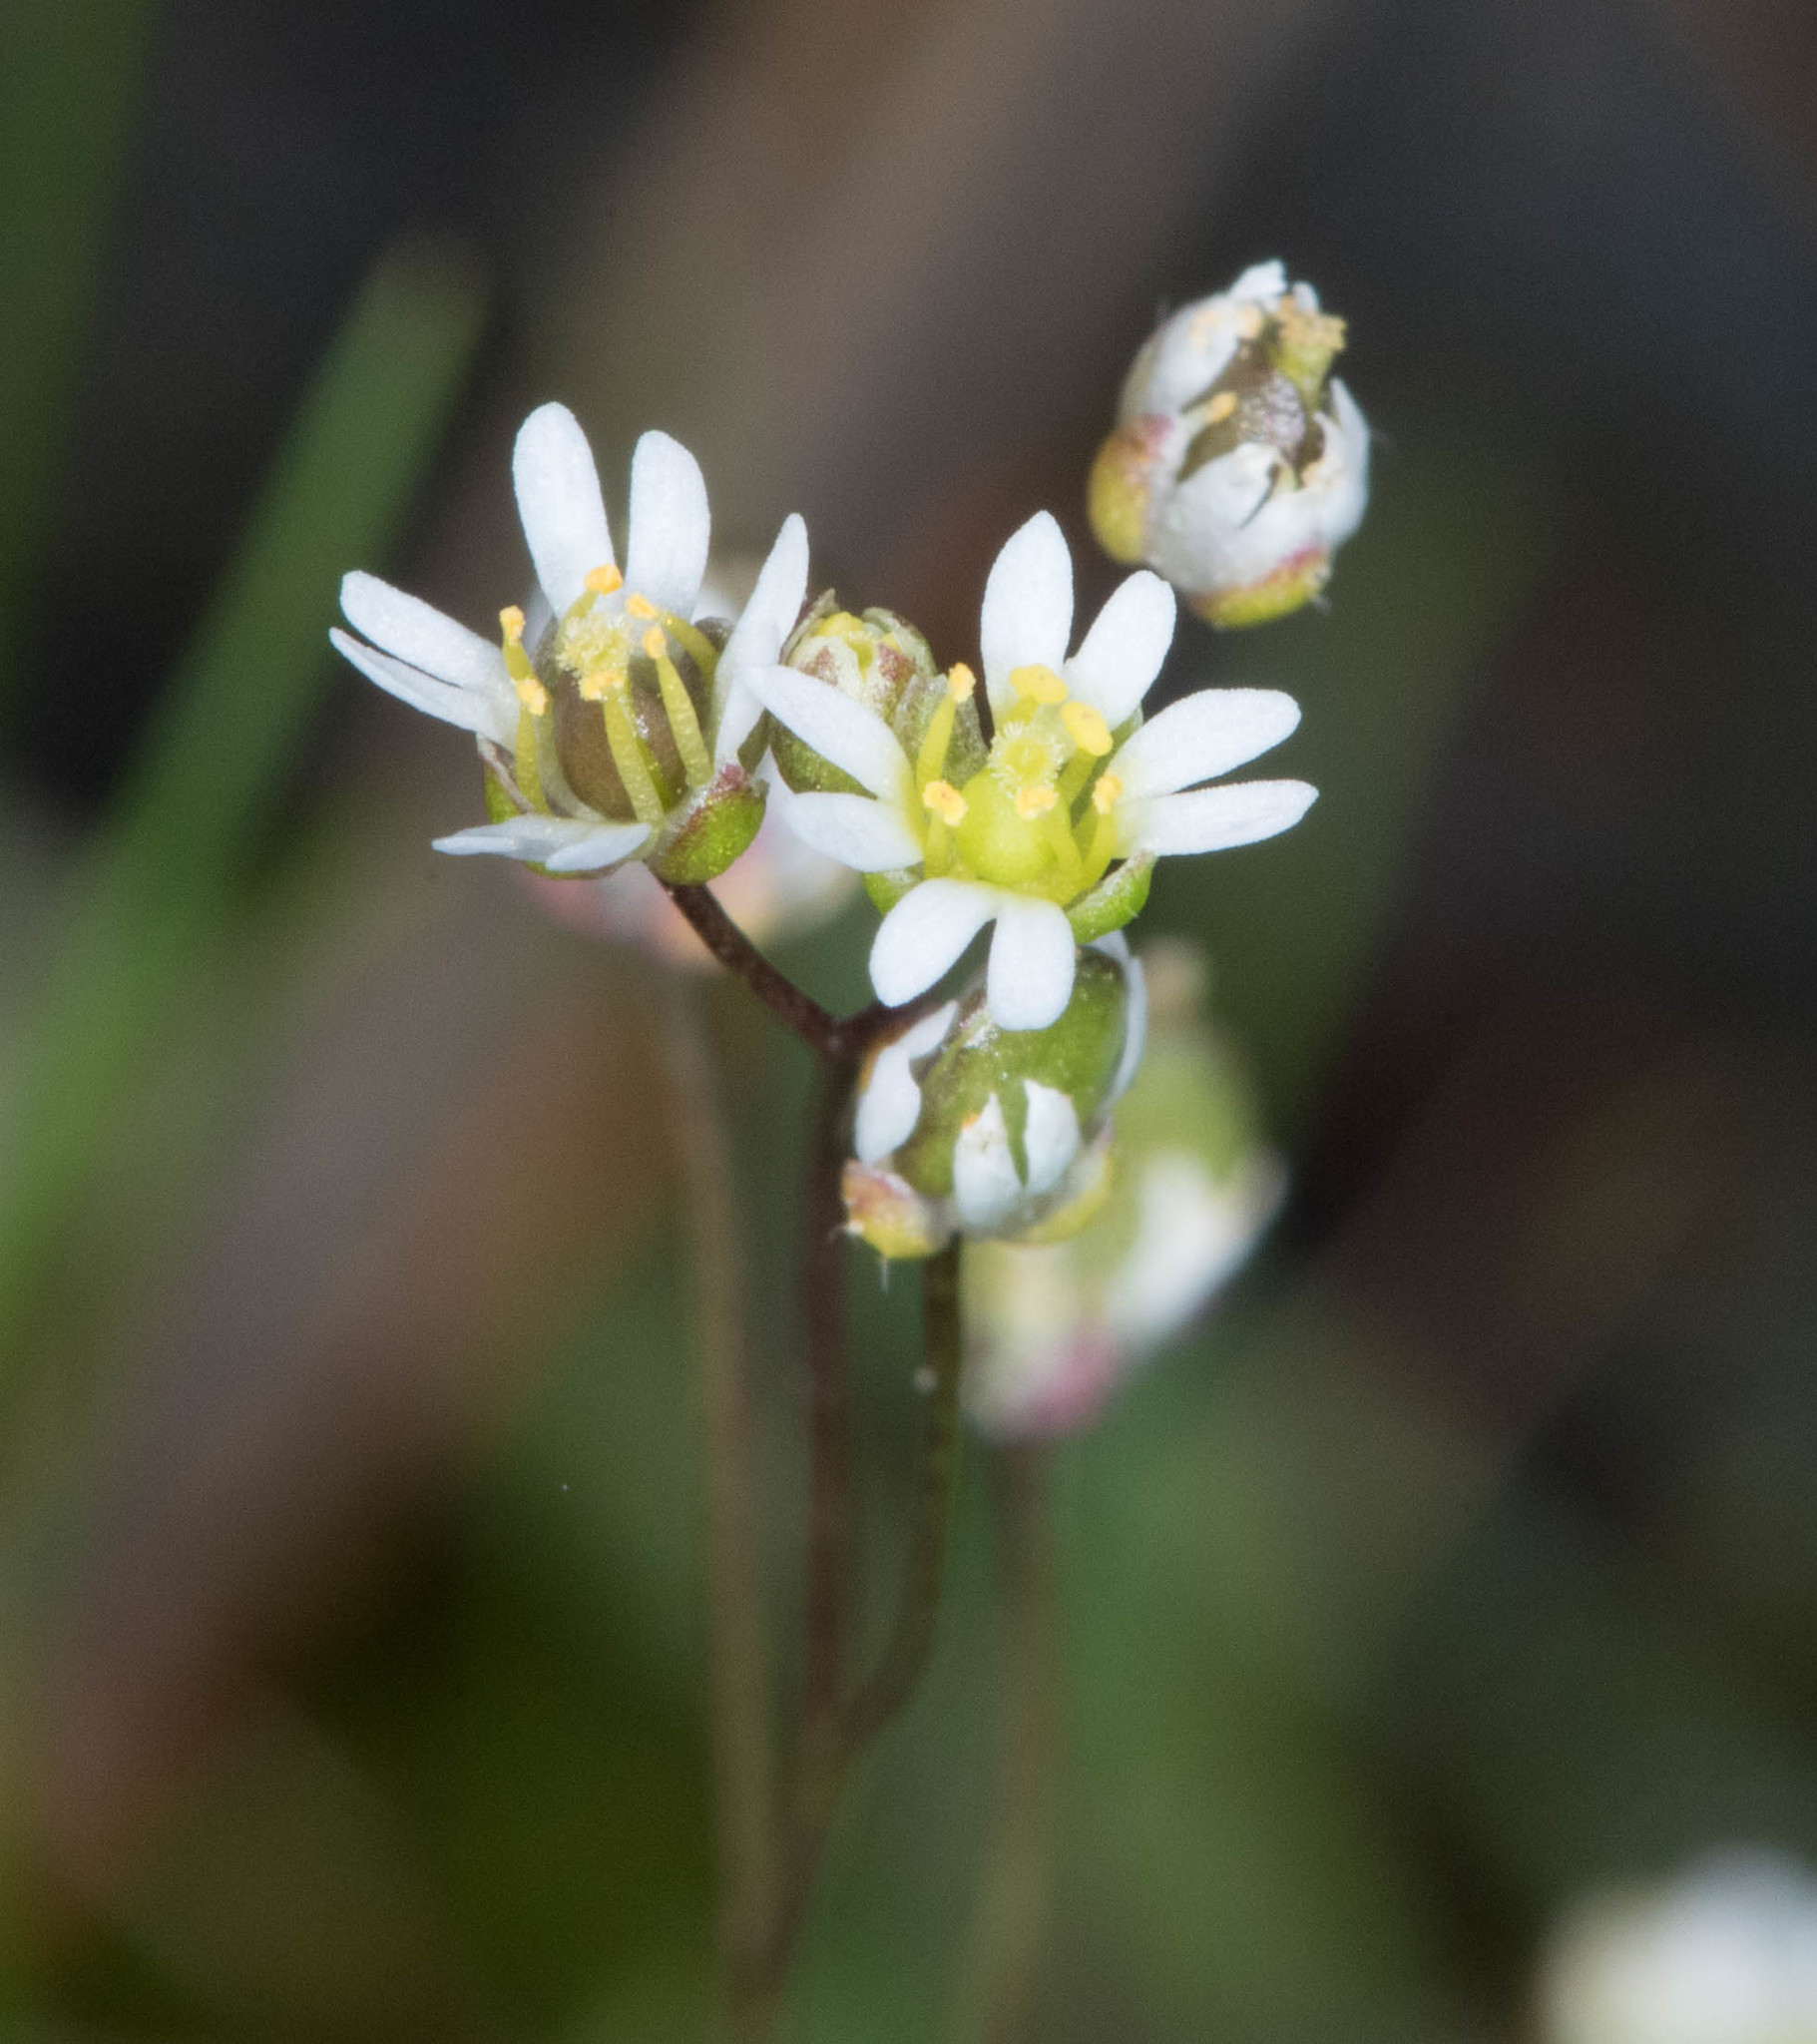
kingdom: Plantae
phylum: Tracheophyta
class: Magnoliopsida
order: Brassicales
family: Brassicaceae
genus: Draba
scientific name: Draba verna
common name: Spring draba
